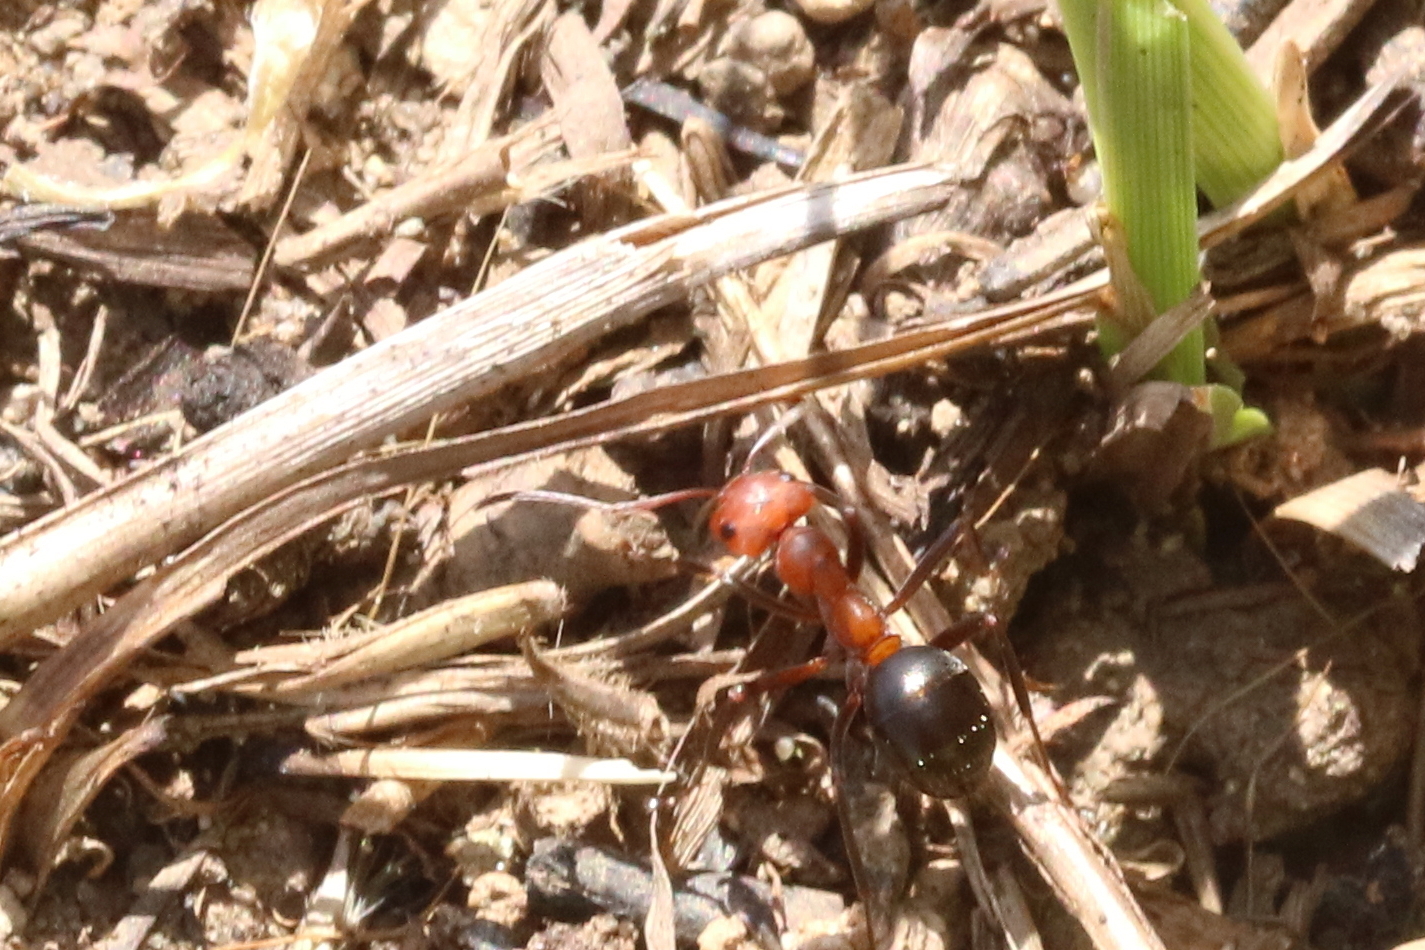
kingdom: Animalia
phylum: Arthropoda
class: Insecta
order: Hymenoptera
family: Formicidae
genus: Formica
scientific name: Formica exsectoides
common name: Allegheny mound ant
